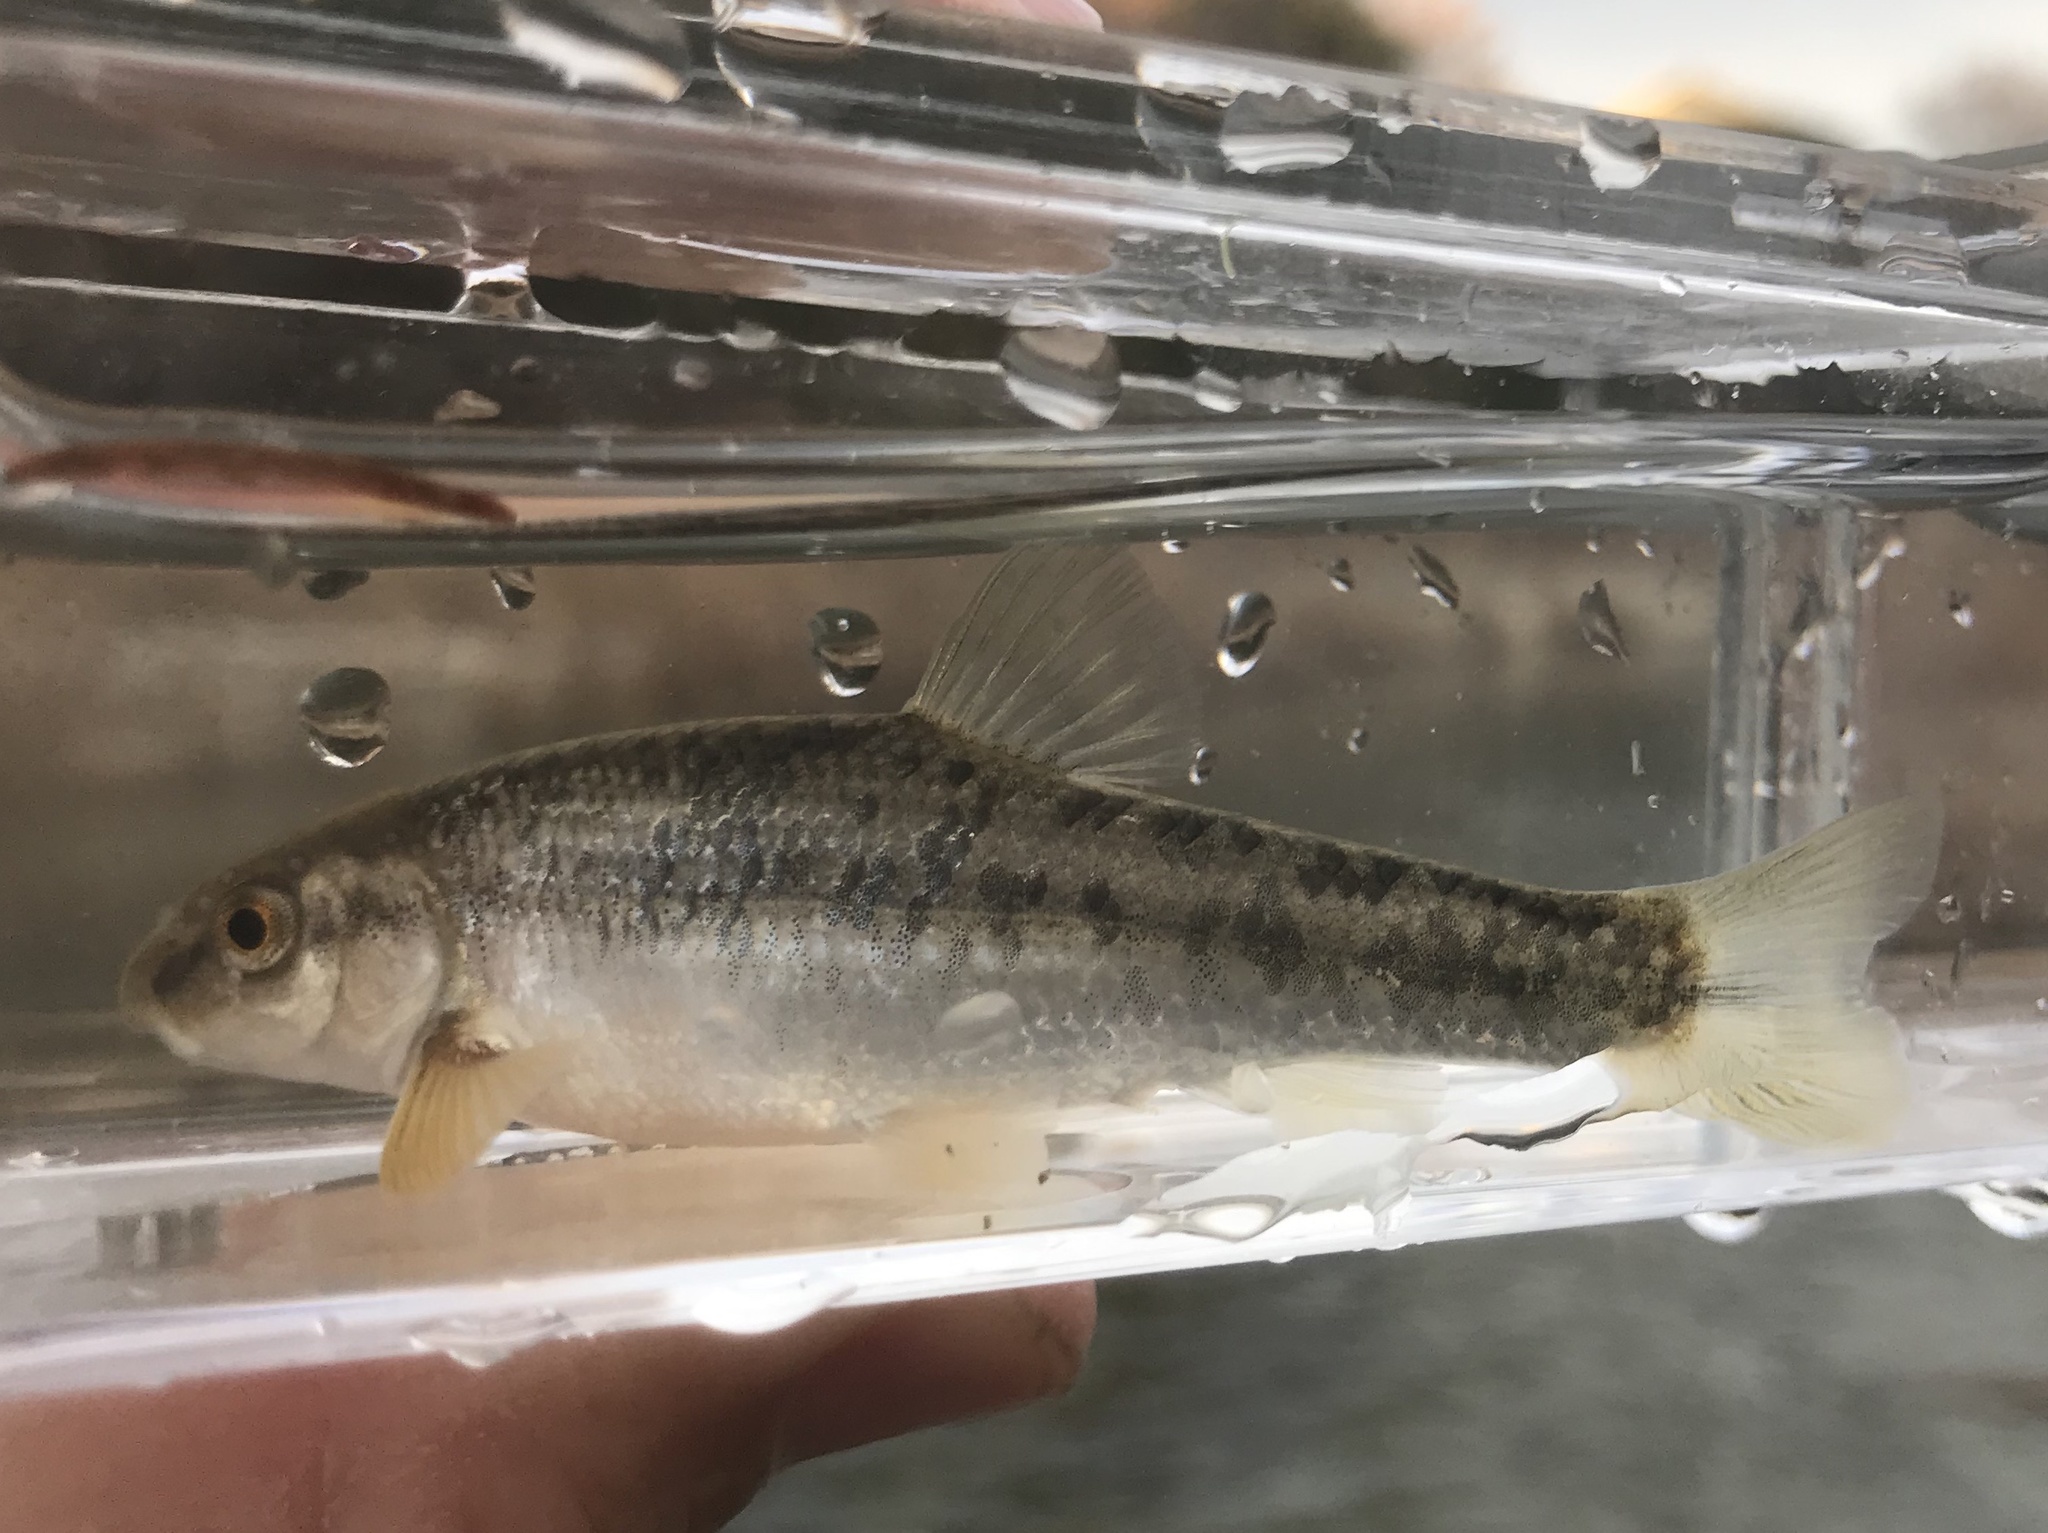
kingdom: Animalia
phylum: Chordata
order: Cypriniformes
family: Cyprinidae
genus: Campostoma
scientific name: Campostoma anomalum
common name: Central stoneroller
